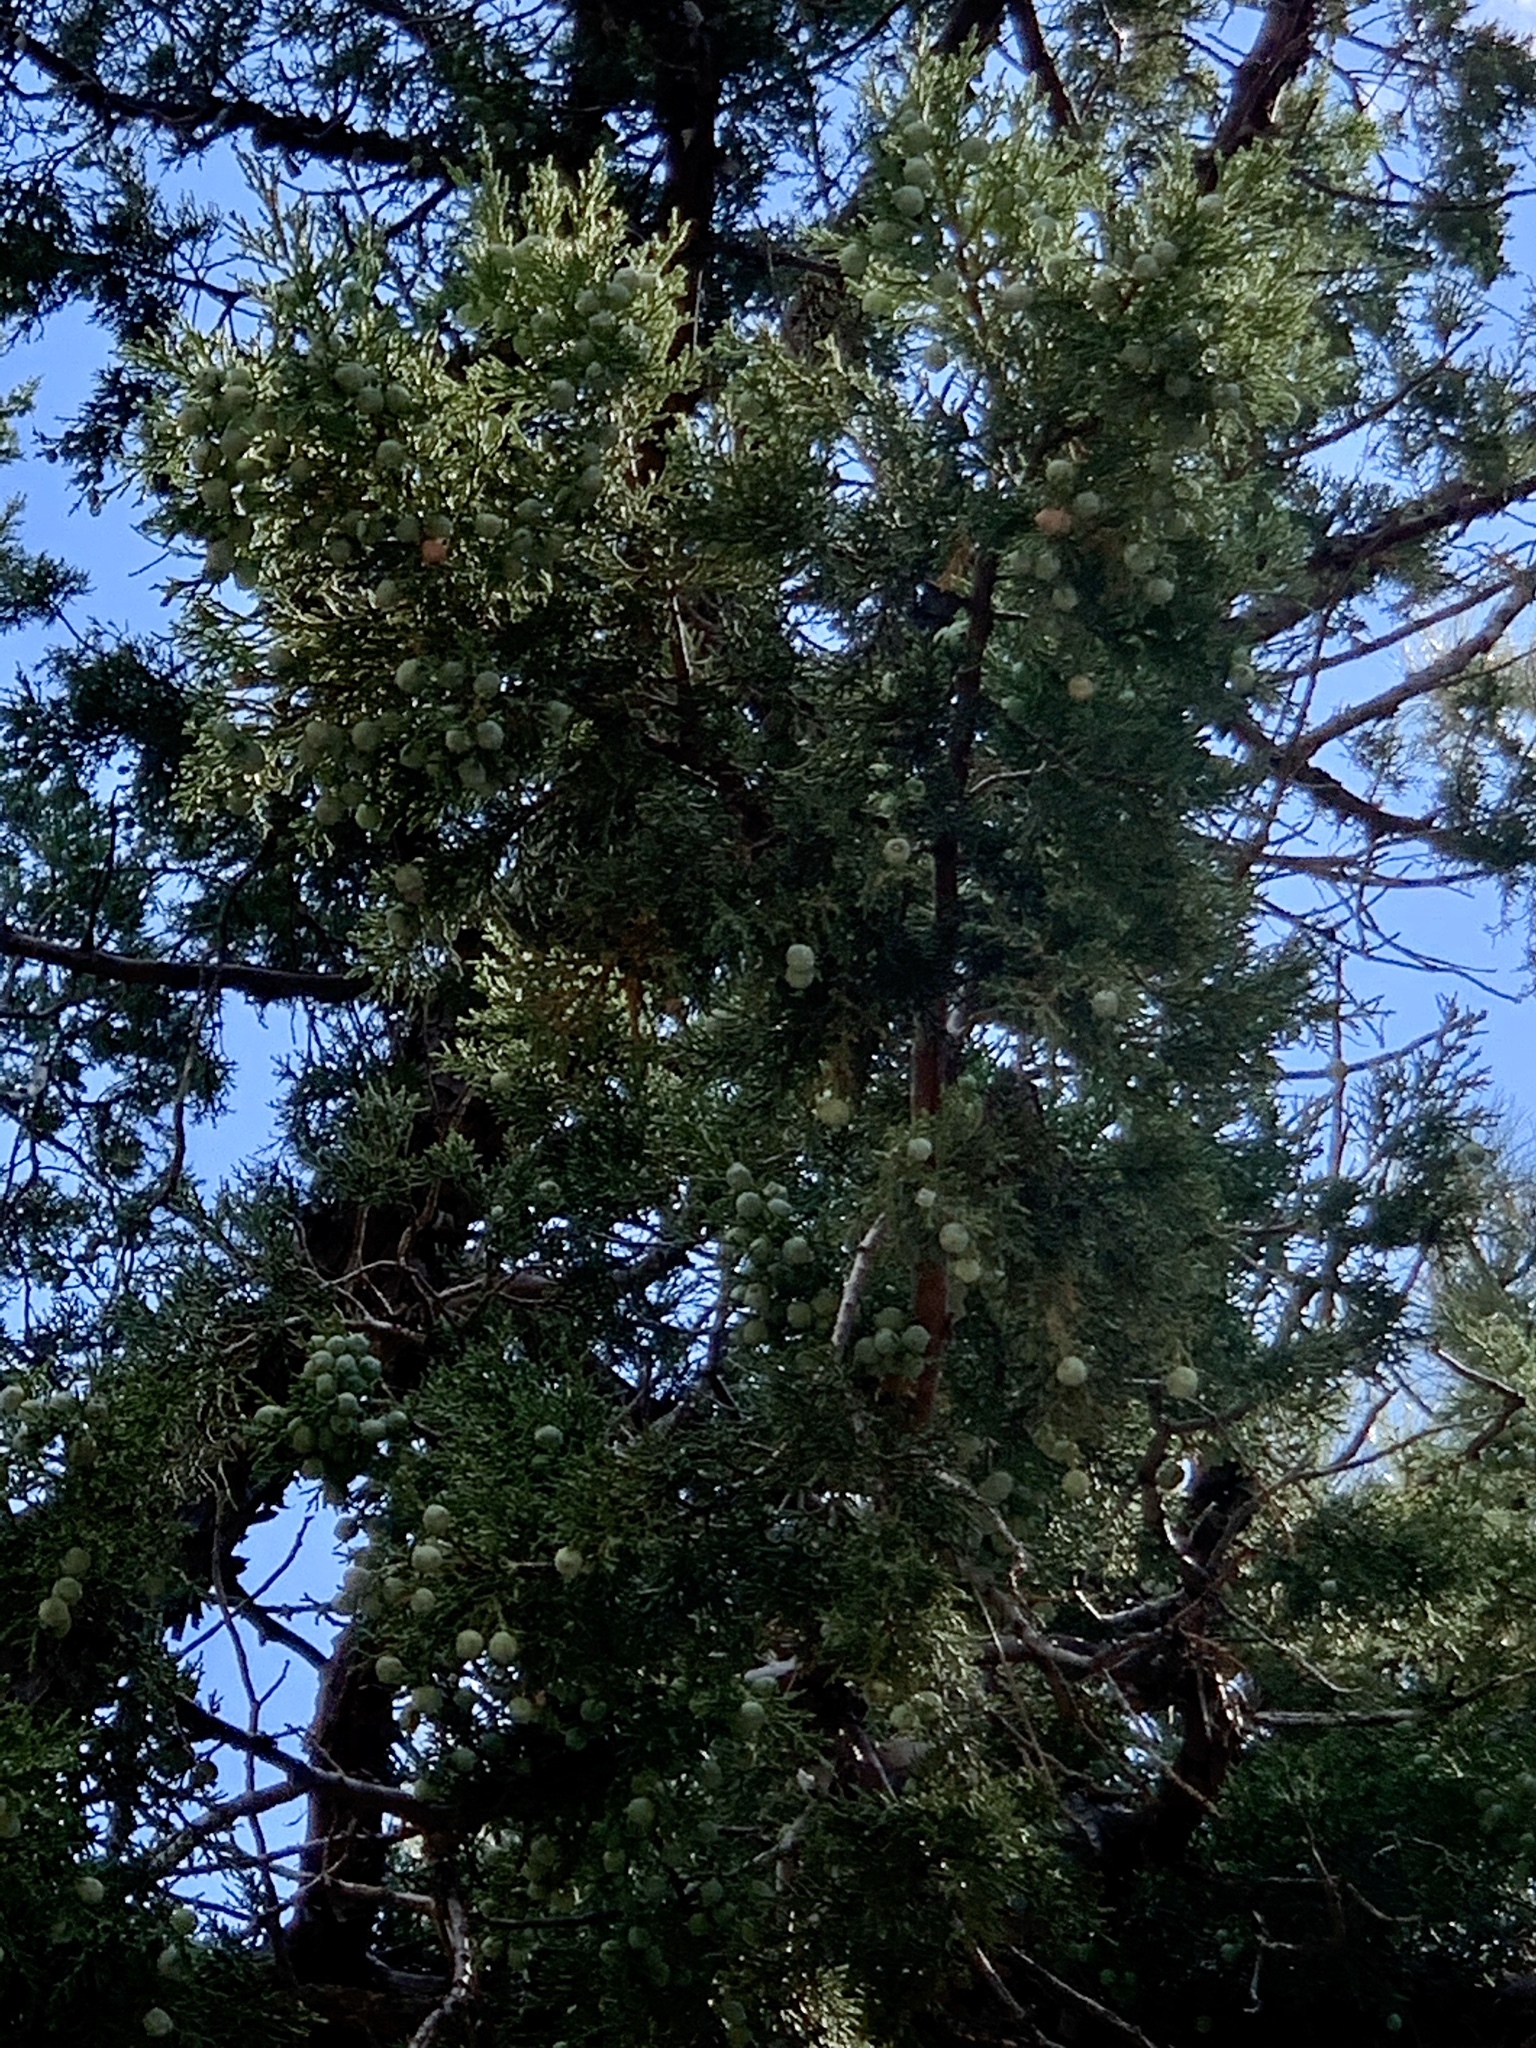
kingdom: Plantae
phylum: Tracheophyta
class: Pinopsida
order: Pinales
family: Cupressaceae
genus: Juniperus
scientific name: Juniperus deppeana
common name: Alligator juniper
